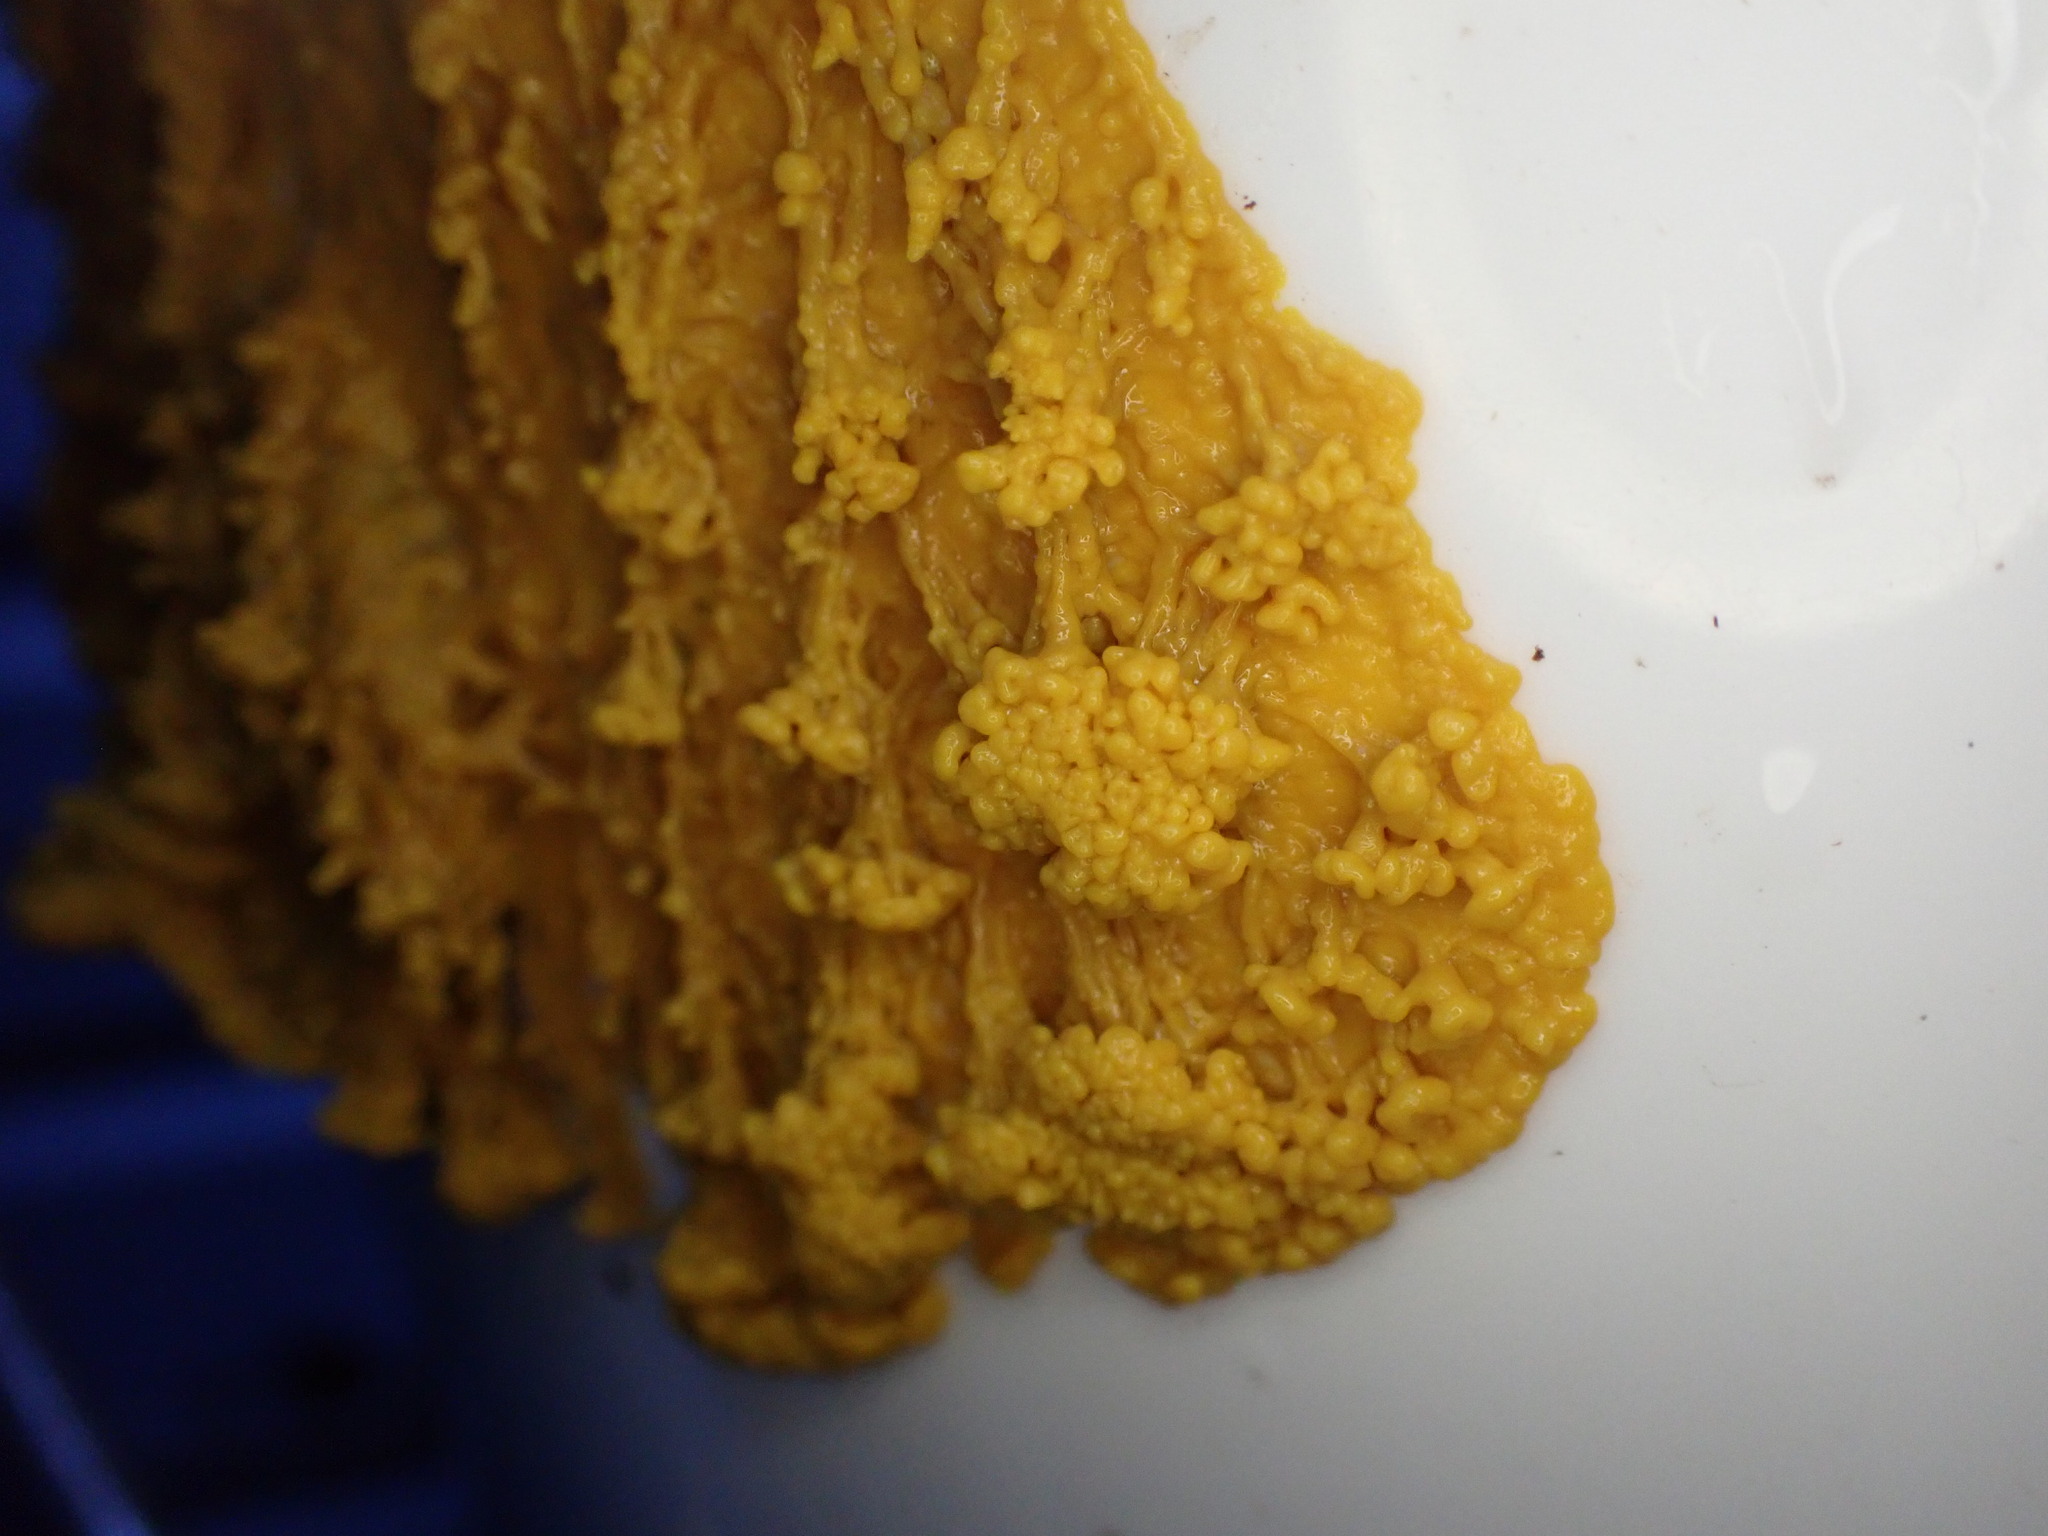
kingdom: Protozoa
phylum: Mycetozoa
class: Myxomycetes
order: Physarales
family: Physaraceae
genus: Fuligo
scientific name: Fuligo septica
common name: Dog vomit slime mold
